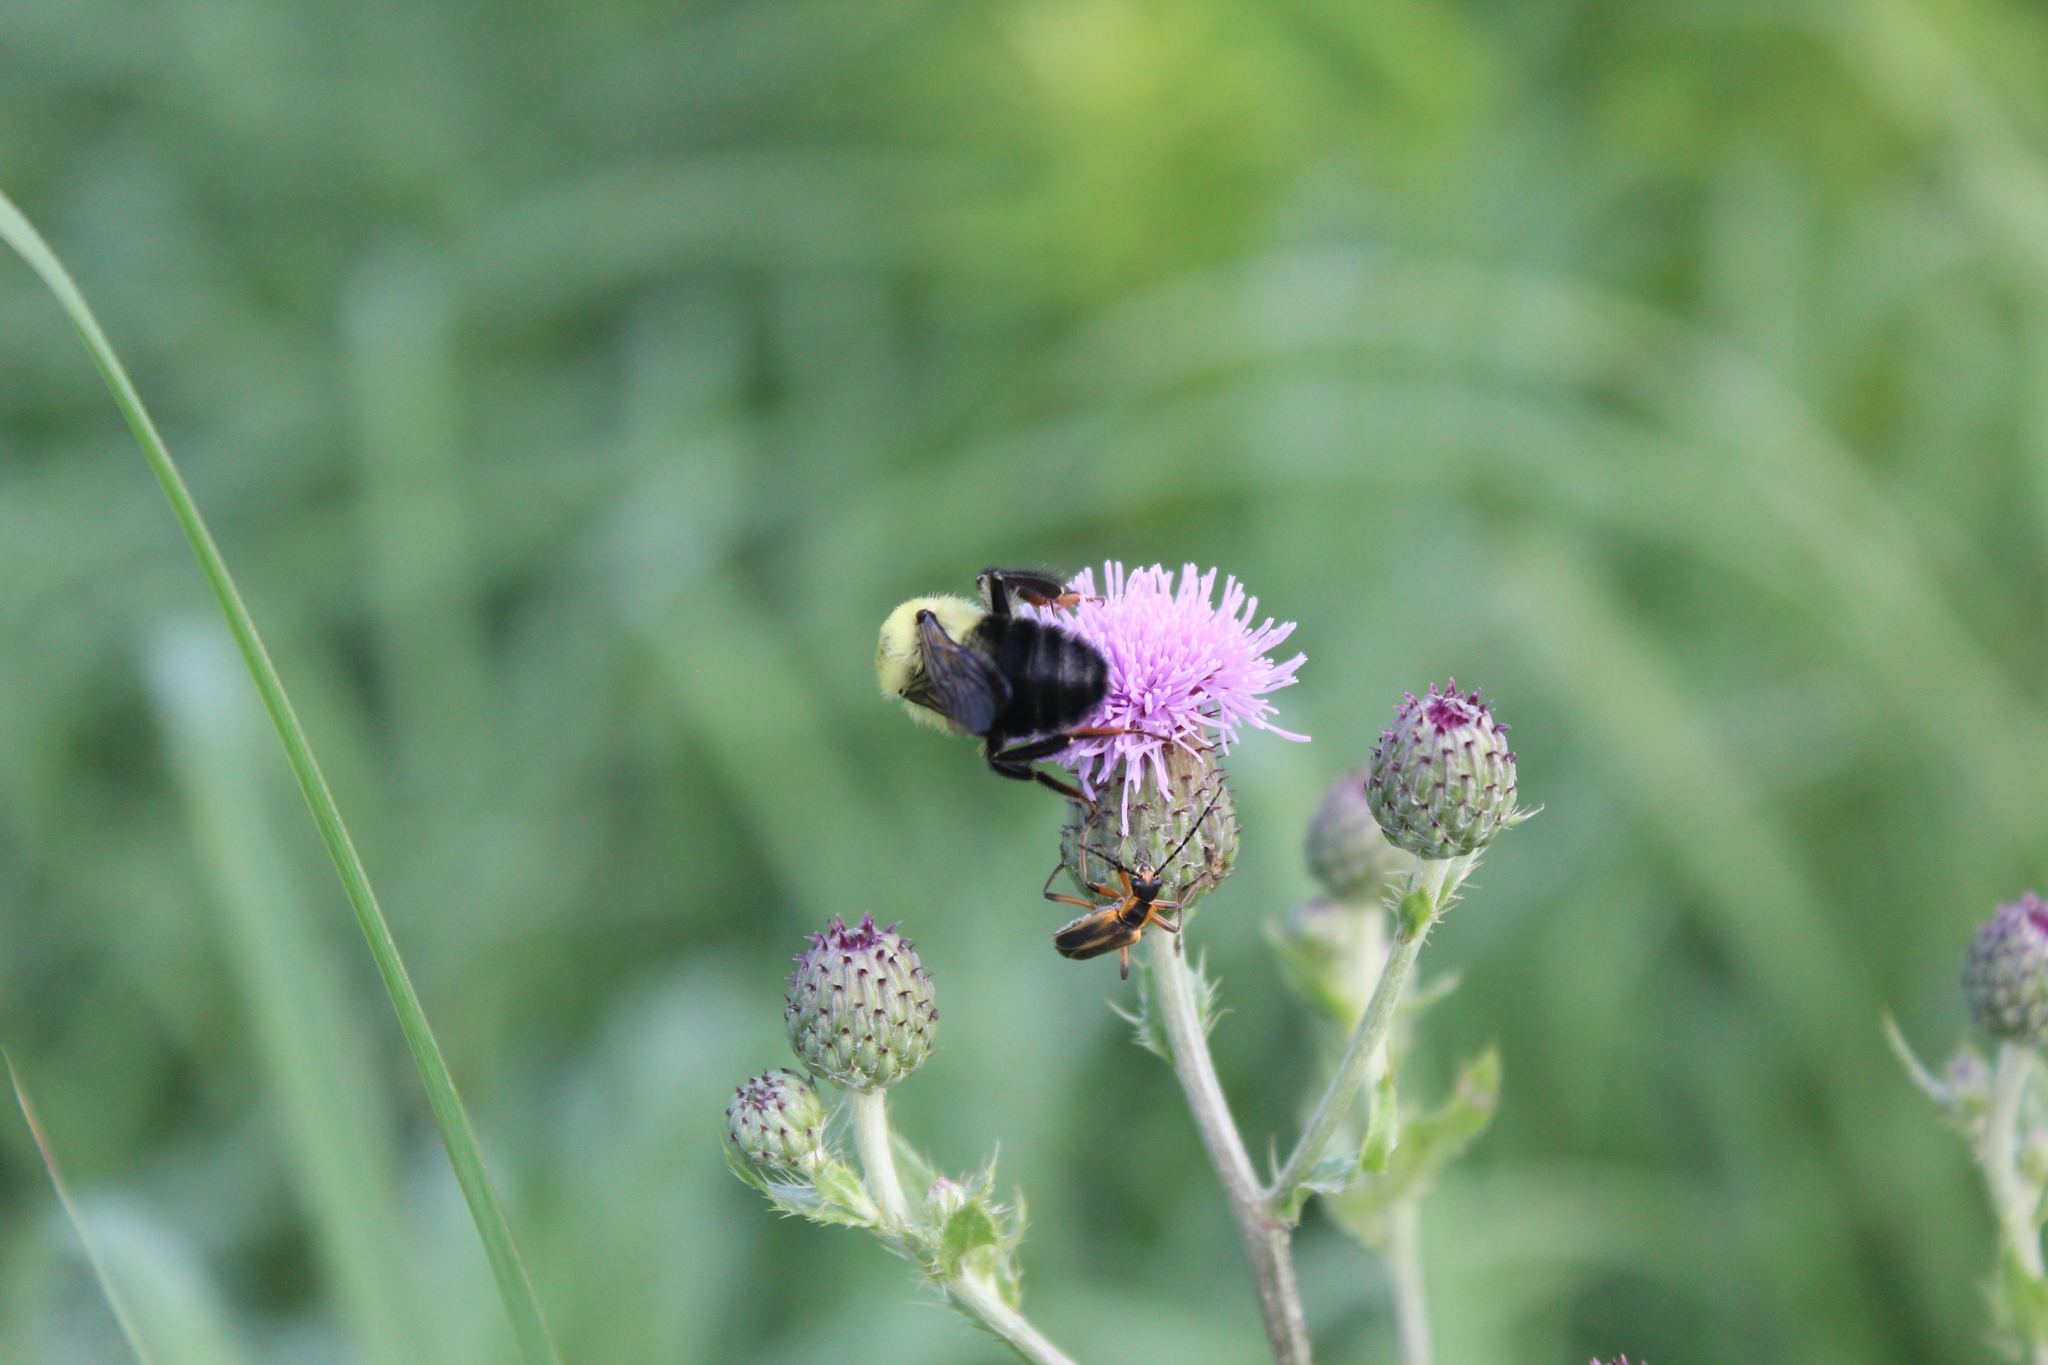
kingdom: Animalia
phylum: Arthropoda
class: Insecta
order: Hymenoptera
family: Apidae
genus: Bombus
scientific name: Bombus bimaculatus
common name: Two-spotted bumble bee
